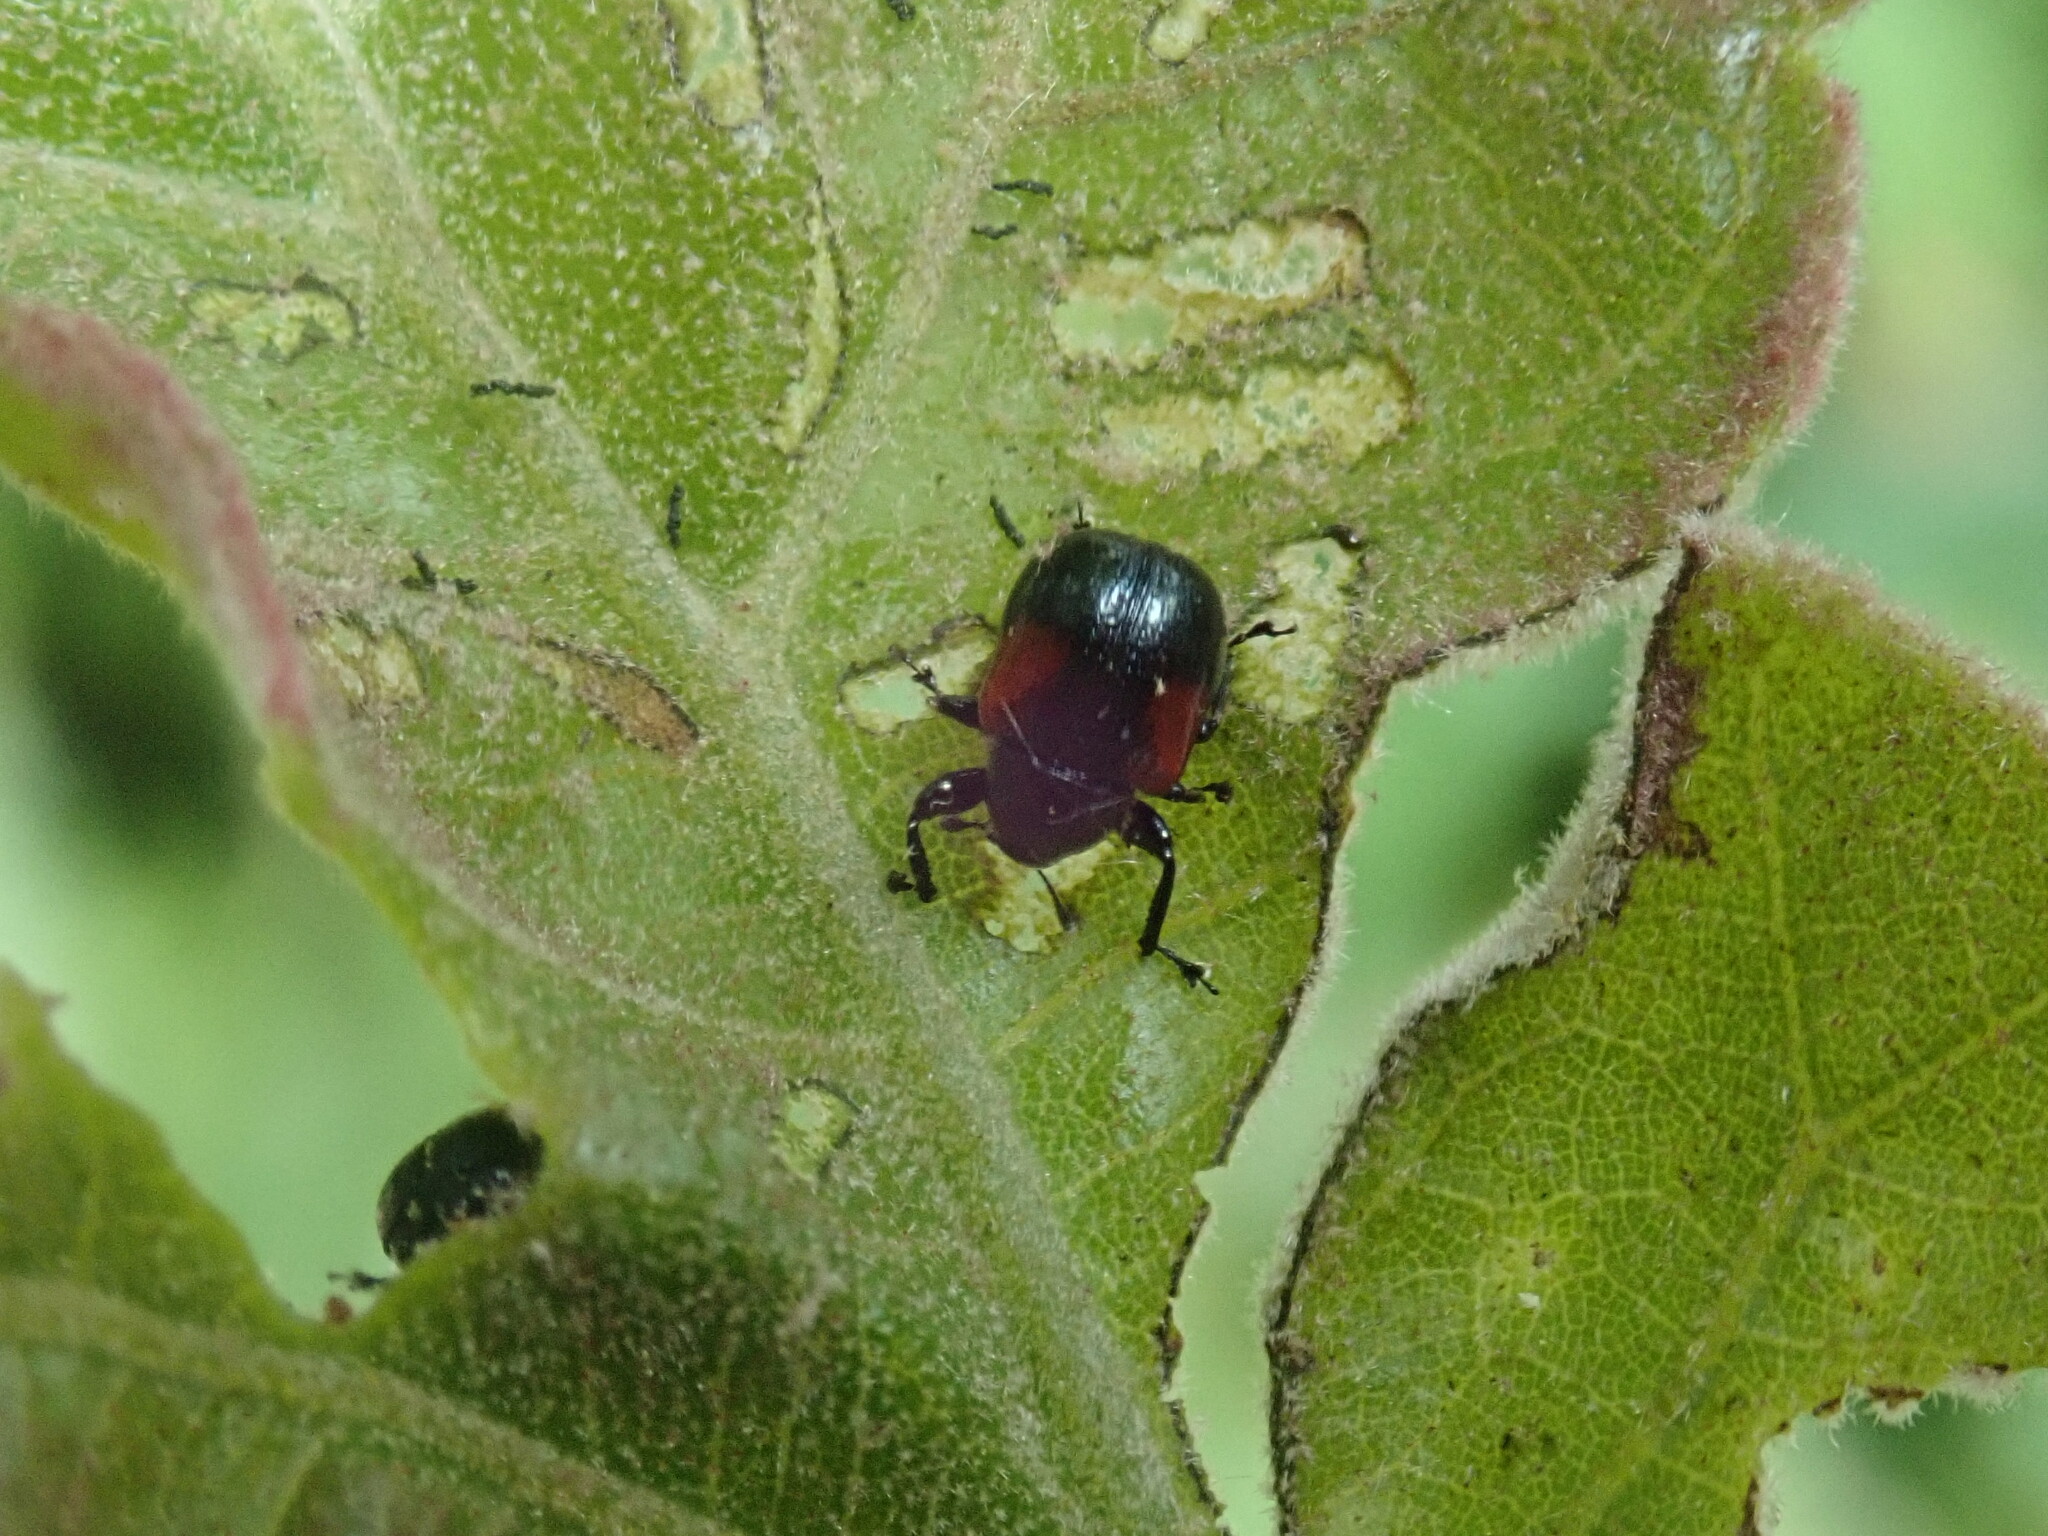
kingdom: Animalia
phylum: Arthropoda
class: Insecta
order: Coleoptera
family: Attelabidae
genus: Attelabus
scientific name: Attelabus bipustulatus
